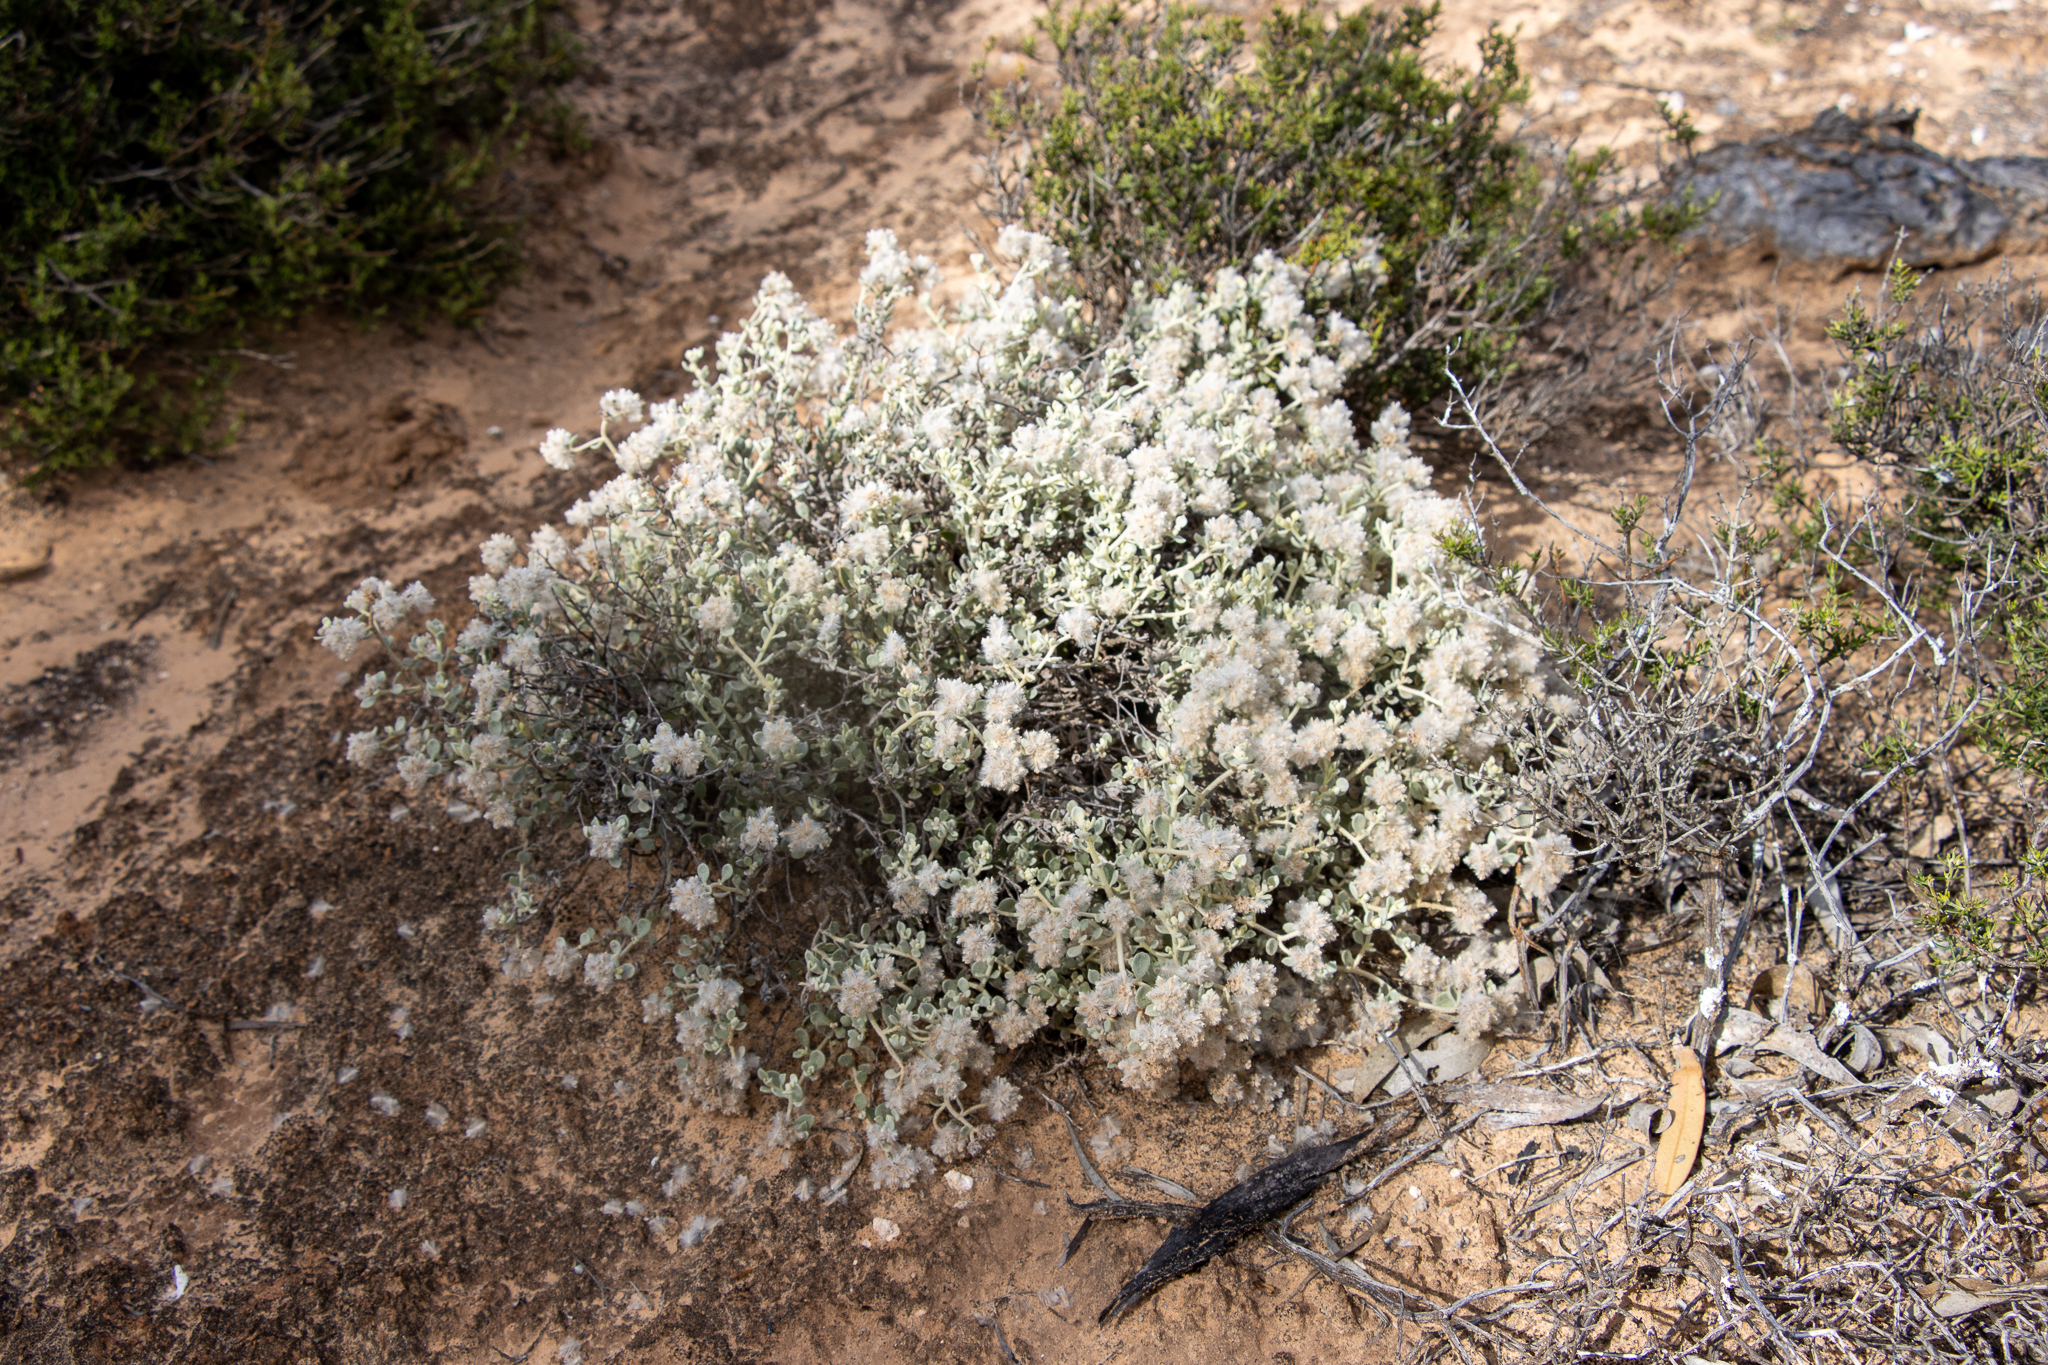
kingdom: Plantae
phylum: Tracheophyta
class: Magnoliopsida
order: Caryophyllales
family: Amaranthaceae
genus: Ptilotus
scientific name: Ptilotus obovatus
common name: Cottonbush
